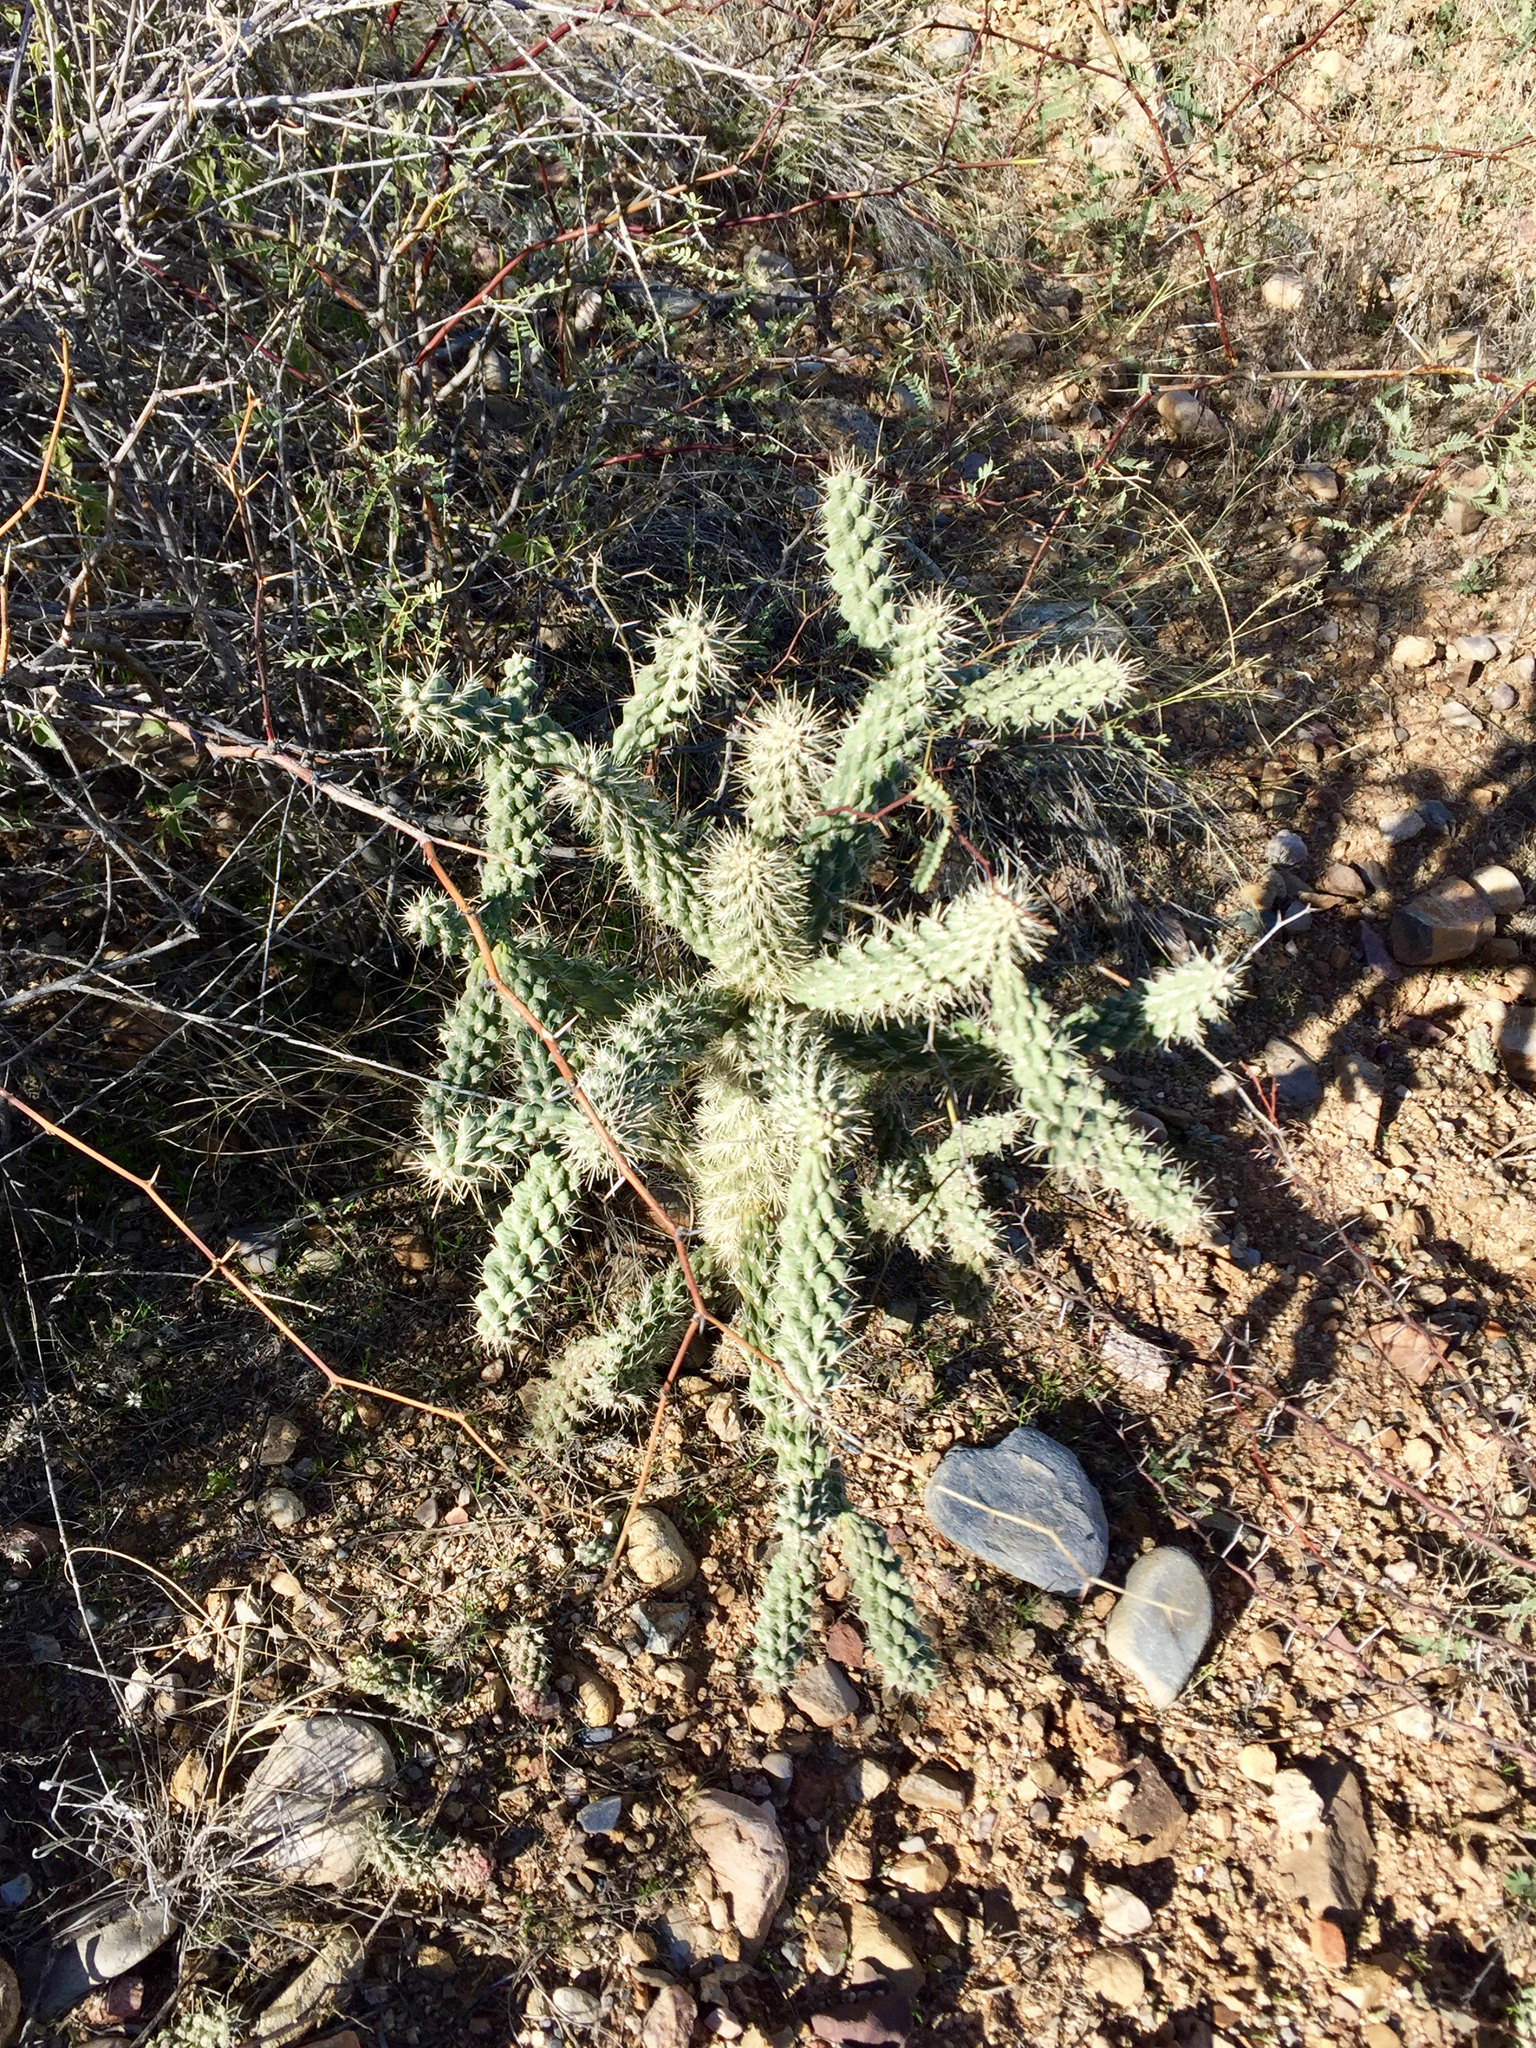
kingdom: Plantae
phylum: Tracheophyta
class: Magnoliopsida
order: Caryophyllales
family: Cactaceae
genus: Cylindropuntia
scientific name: Cylindropuntia fulgida
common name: Jumping cholla
